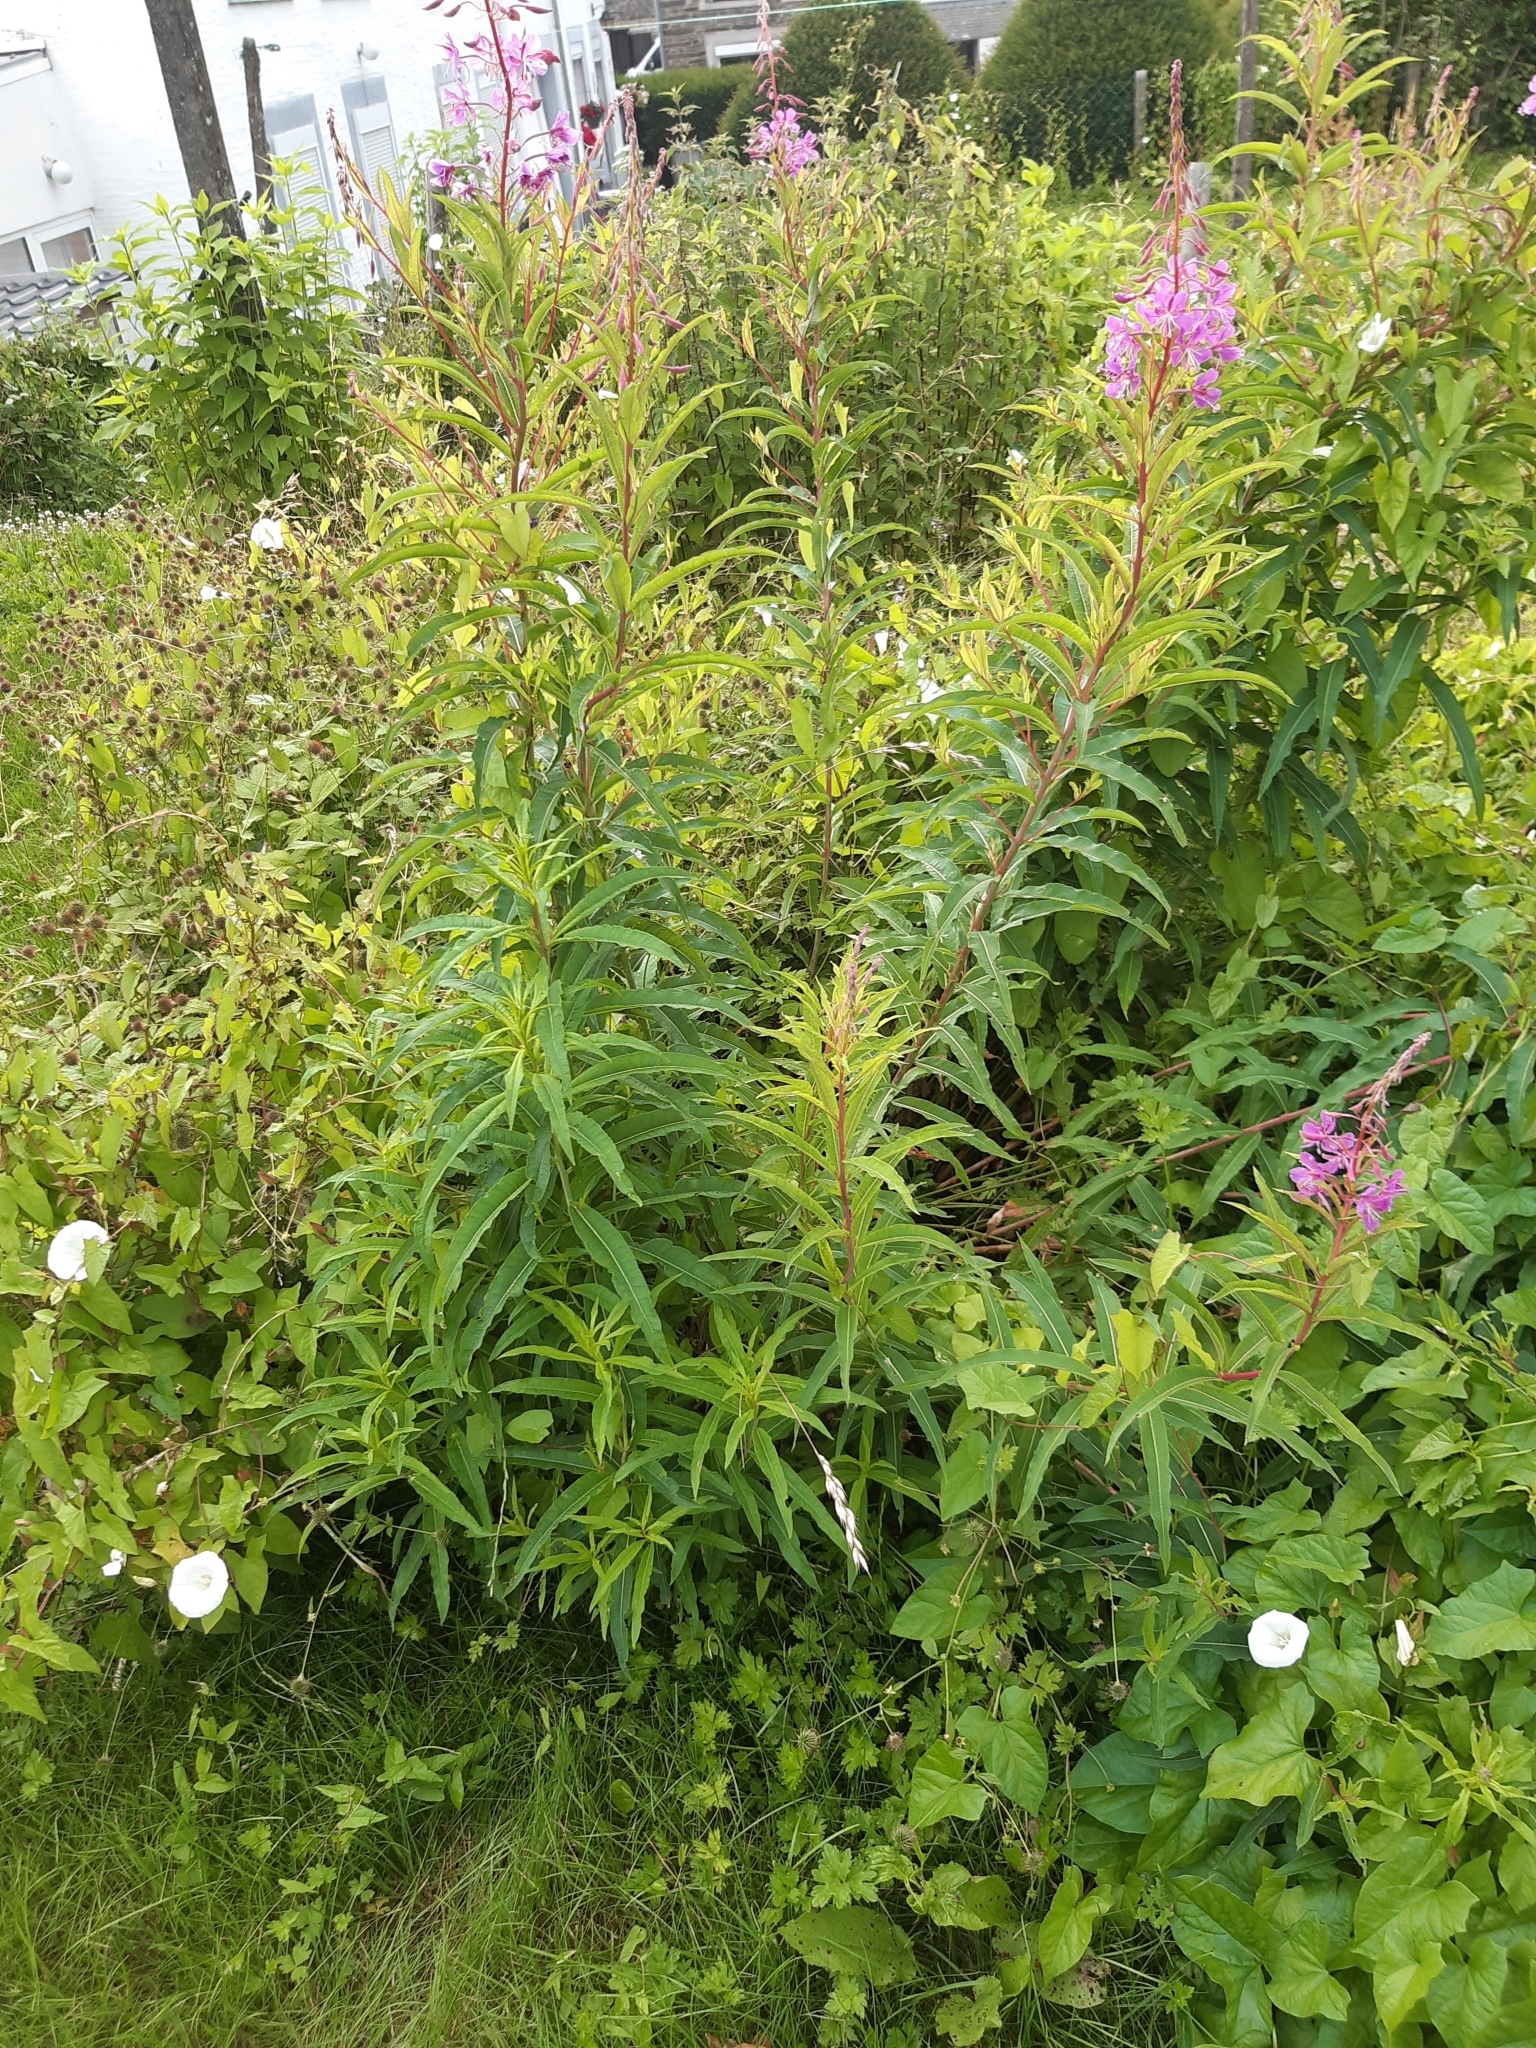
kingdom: Plantae
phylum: Tracheophyta
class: Magnoliopsida
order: Myrtales
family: Onagraceae
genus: Chamaenerion
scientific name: Chamaenerion angustifolium
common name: Fireweed
